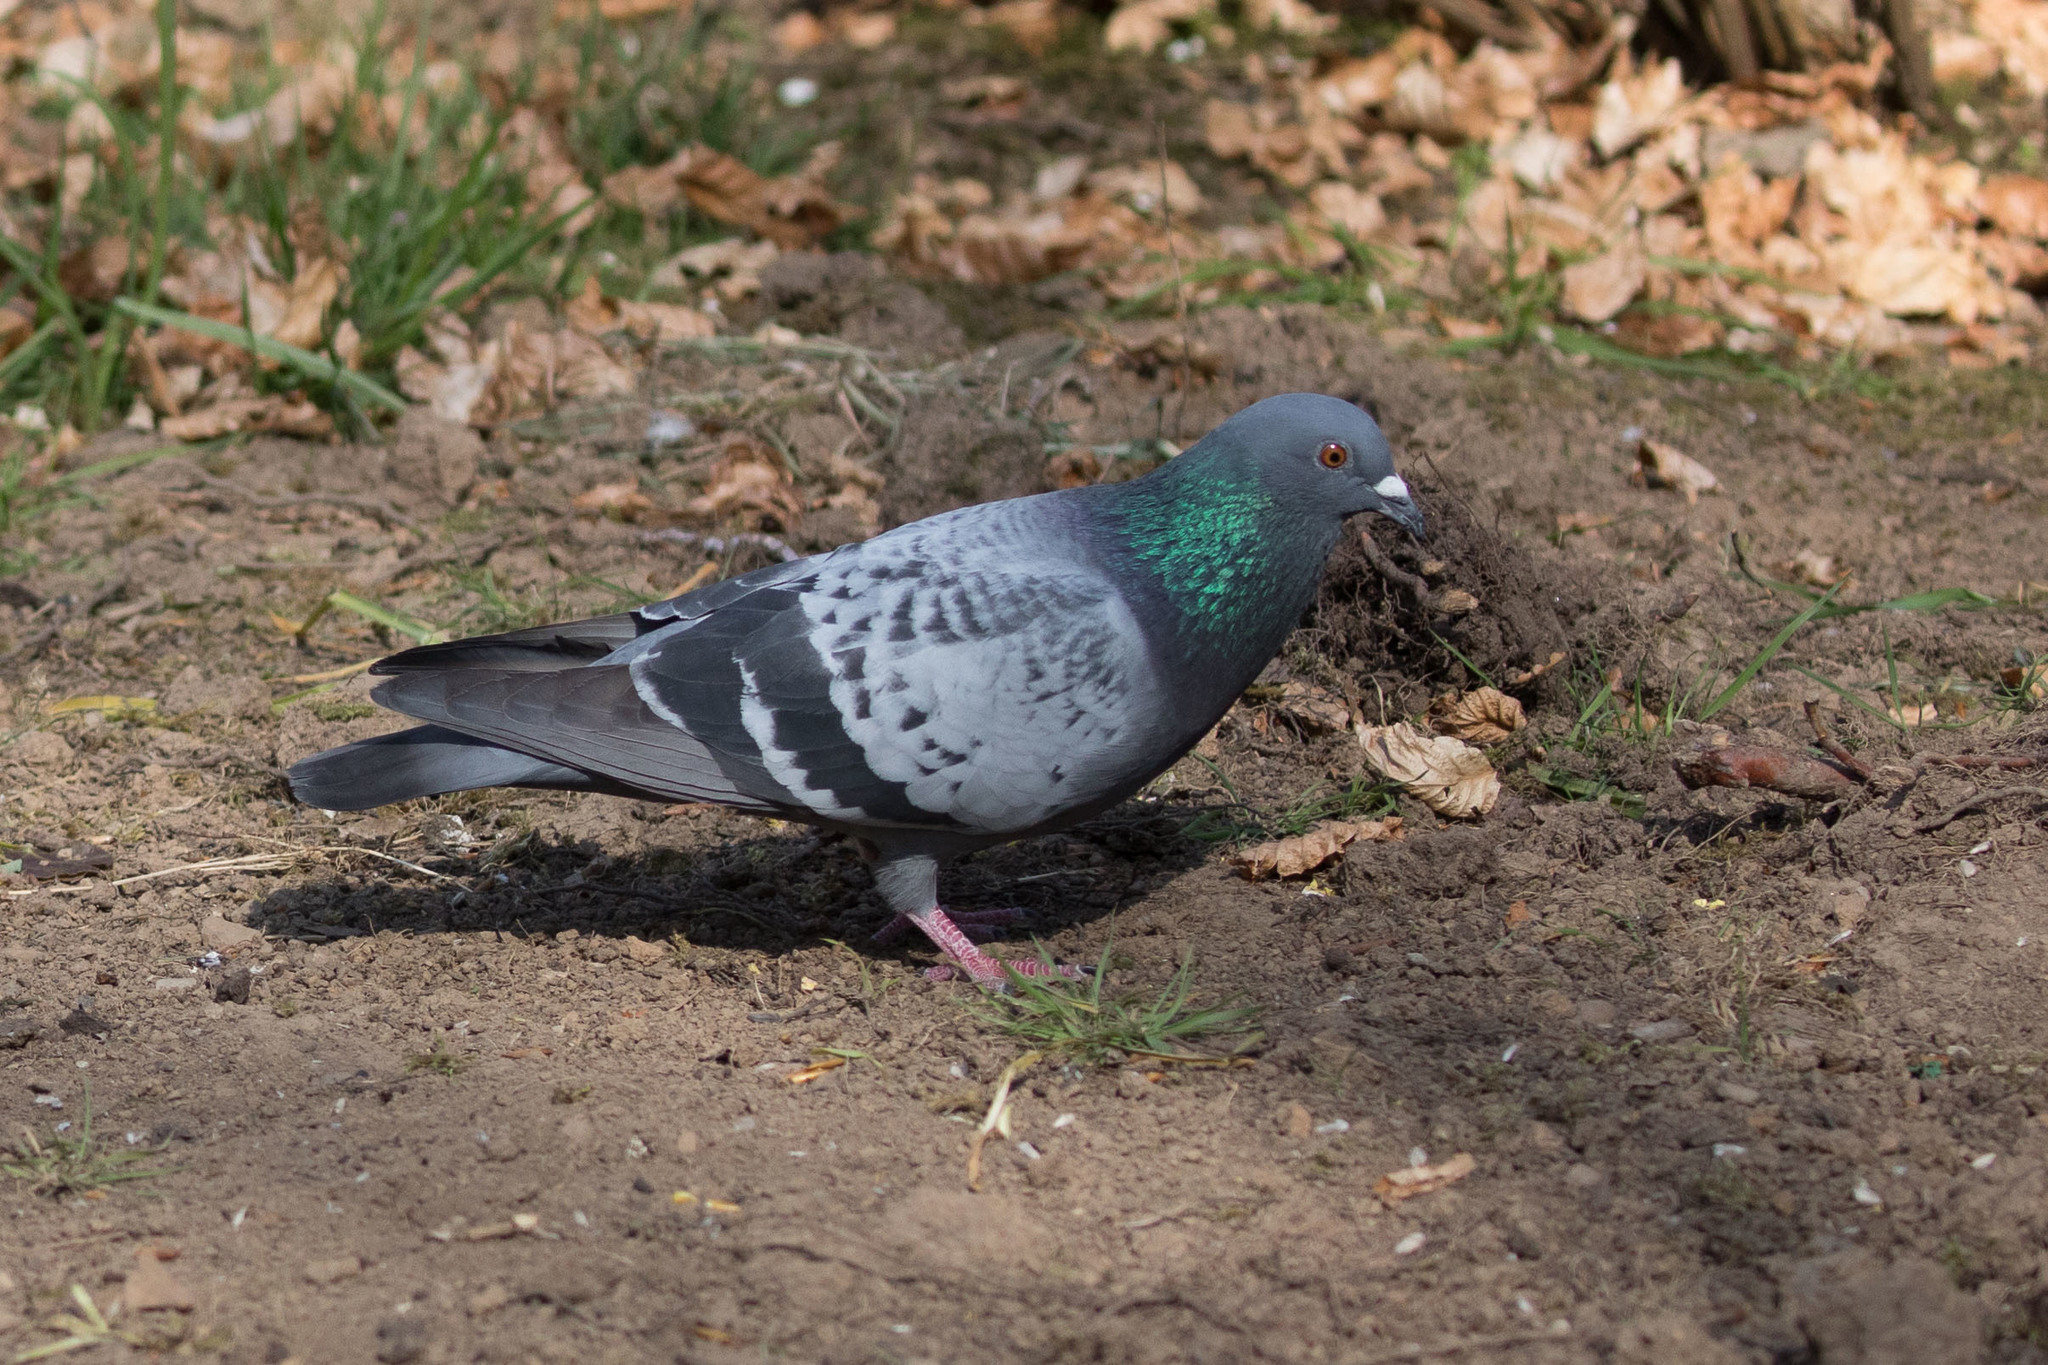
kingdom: Animalia
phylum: Chordata
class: Aves
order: Columbiformes
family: Columbidae
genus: Columba
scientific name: Columba livia
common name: Rock pigeon
